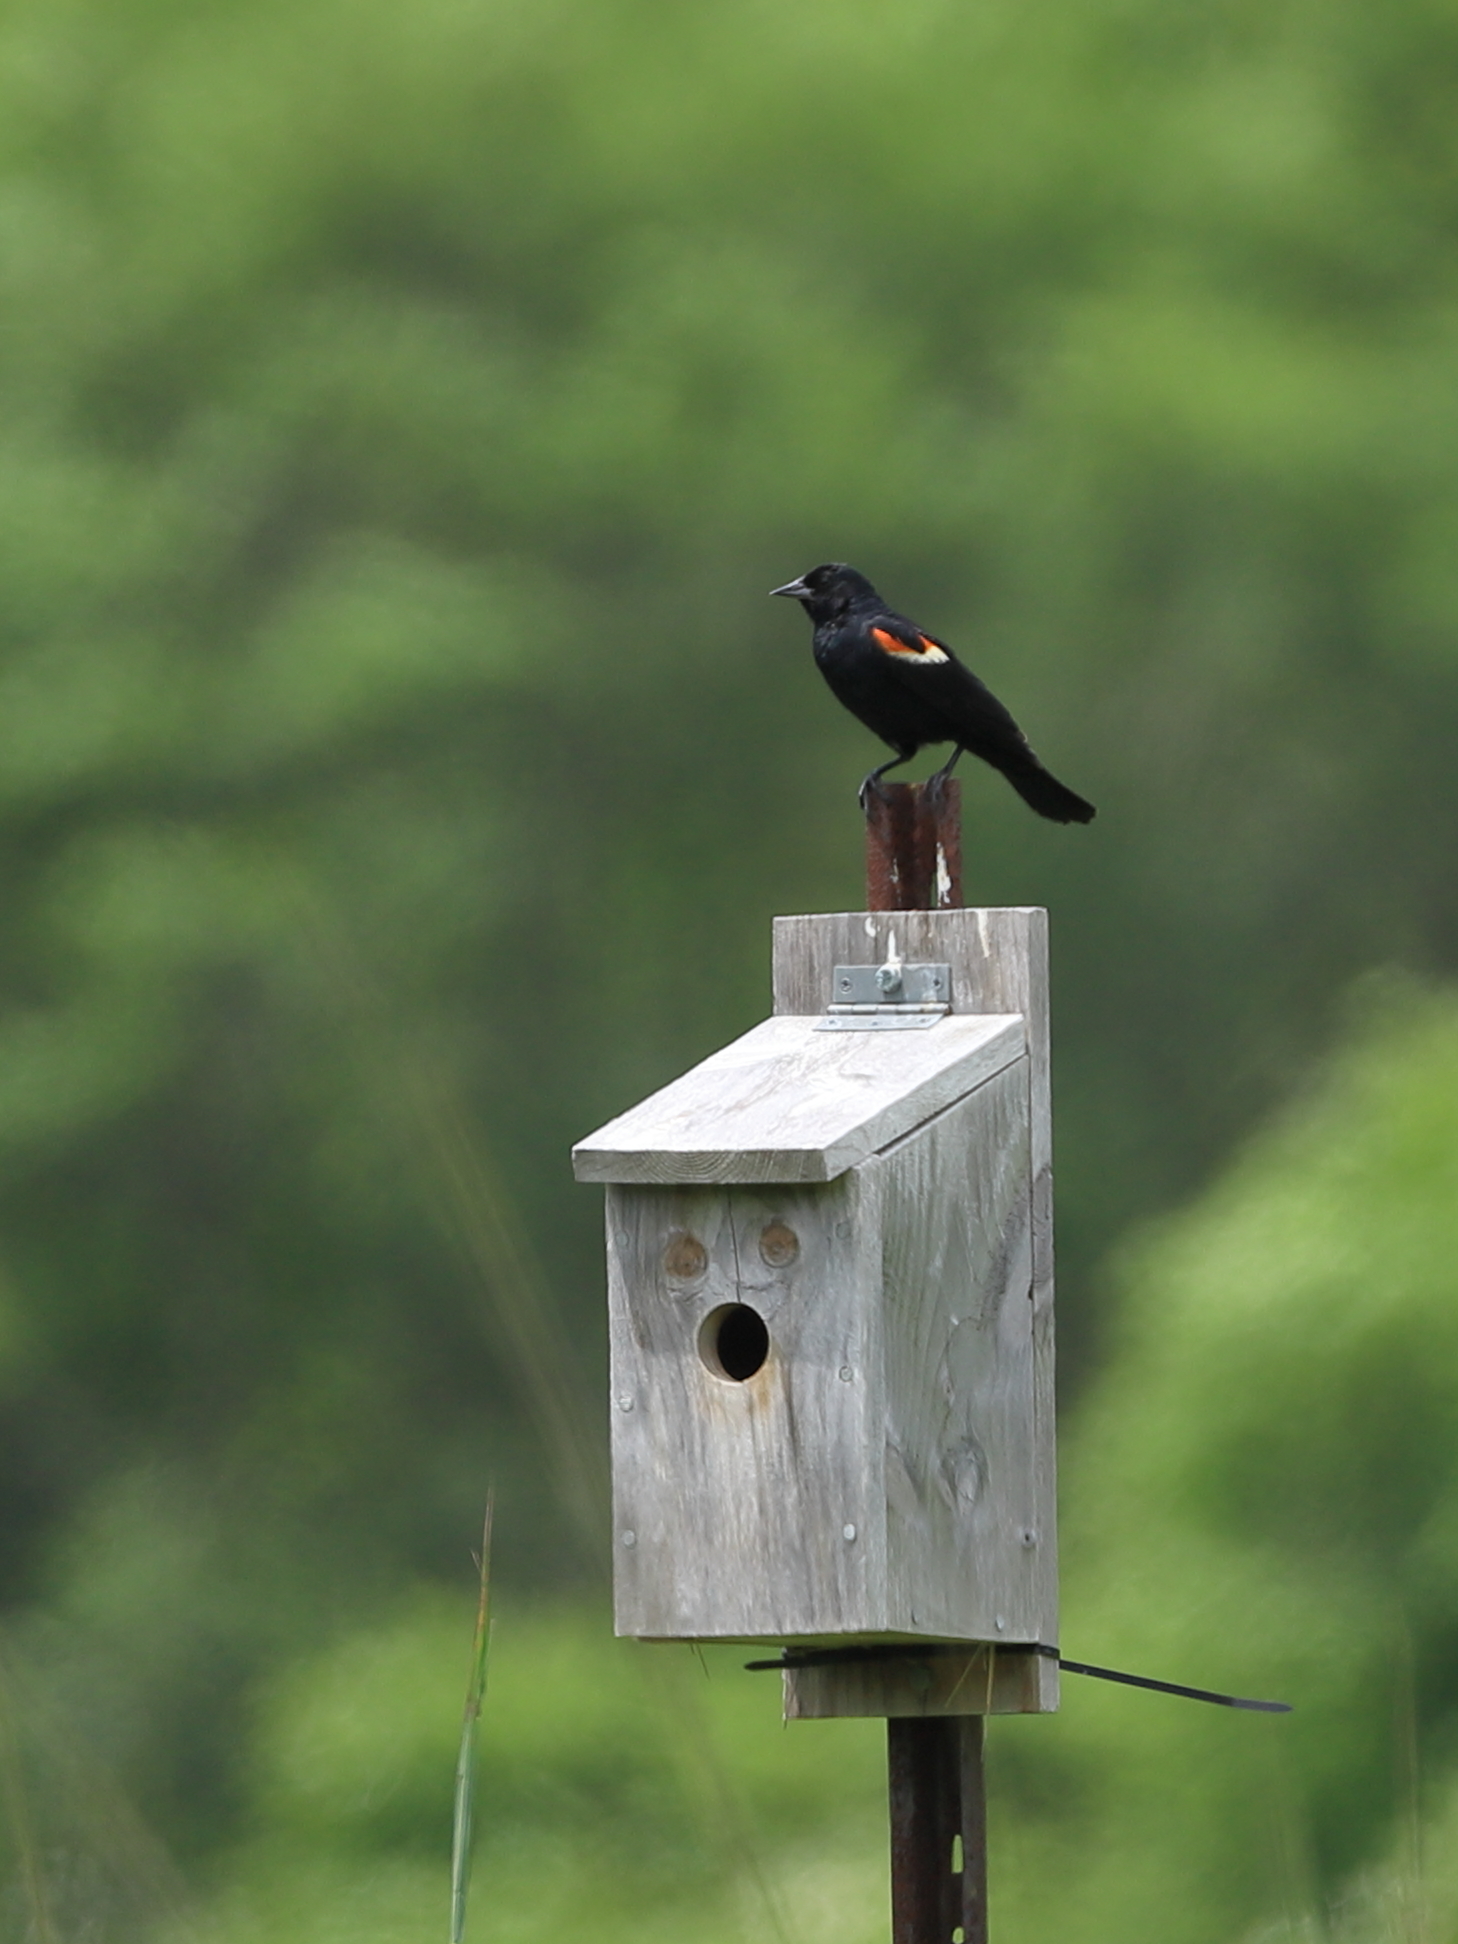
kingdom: Animalia
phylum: Chordata
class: Aves
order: Passeriformes
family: Icteridae
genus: Agelaius
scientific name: Agelaius phoeniceus
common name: Red-winged blackbird
